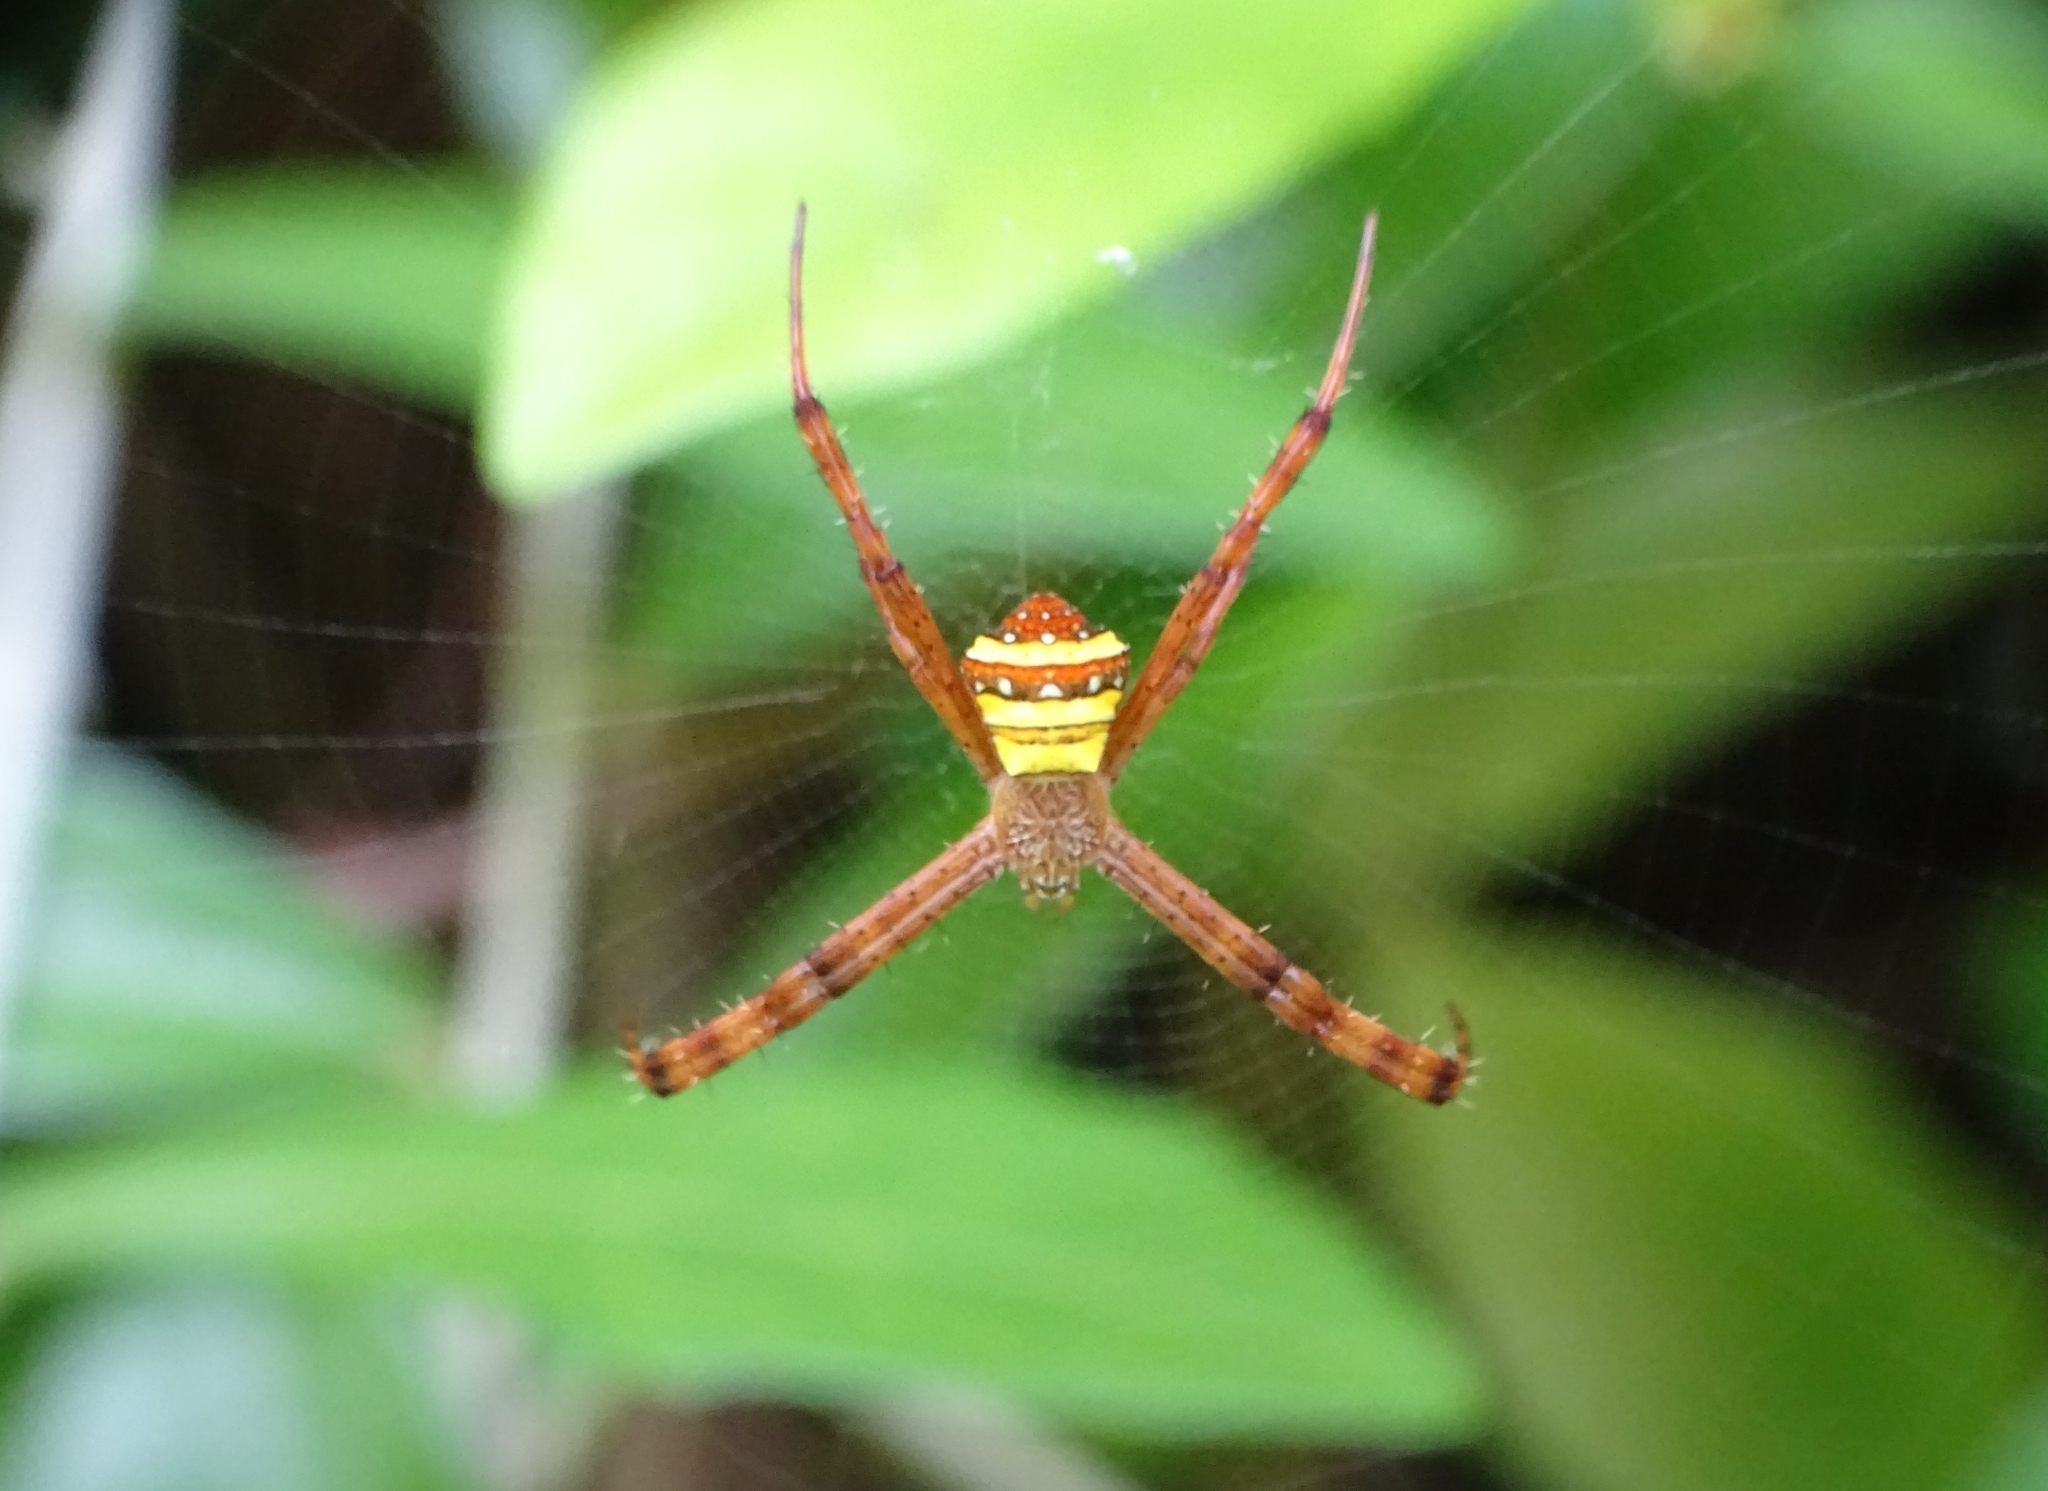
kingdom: Animalia
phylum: Arthropoda
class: Arachnida
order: Araneae
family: Araneidae
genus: Argiope
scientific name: Argiope pulchella
